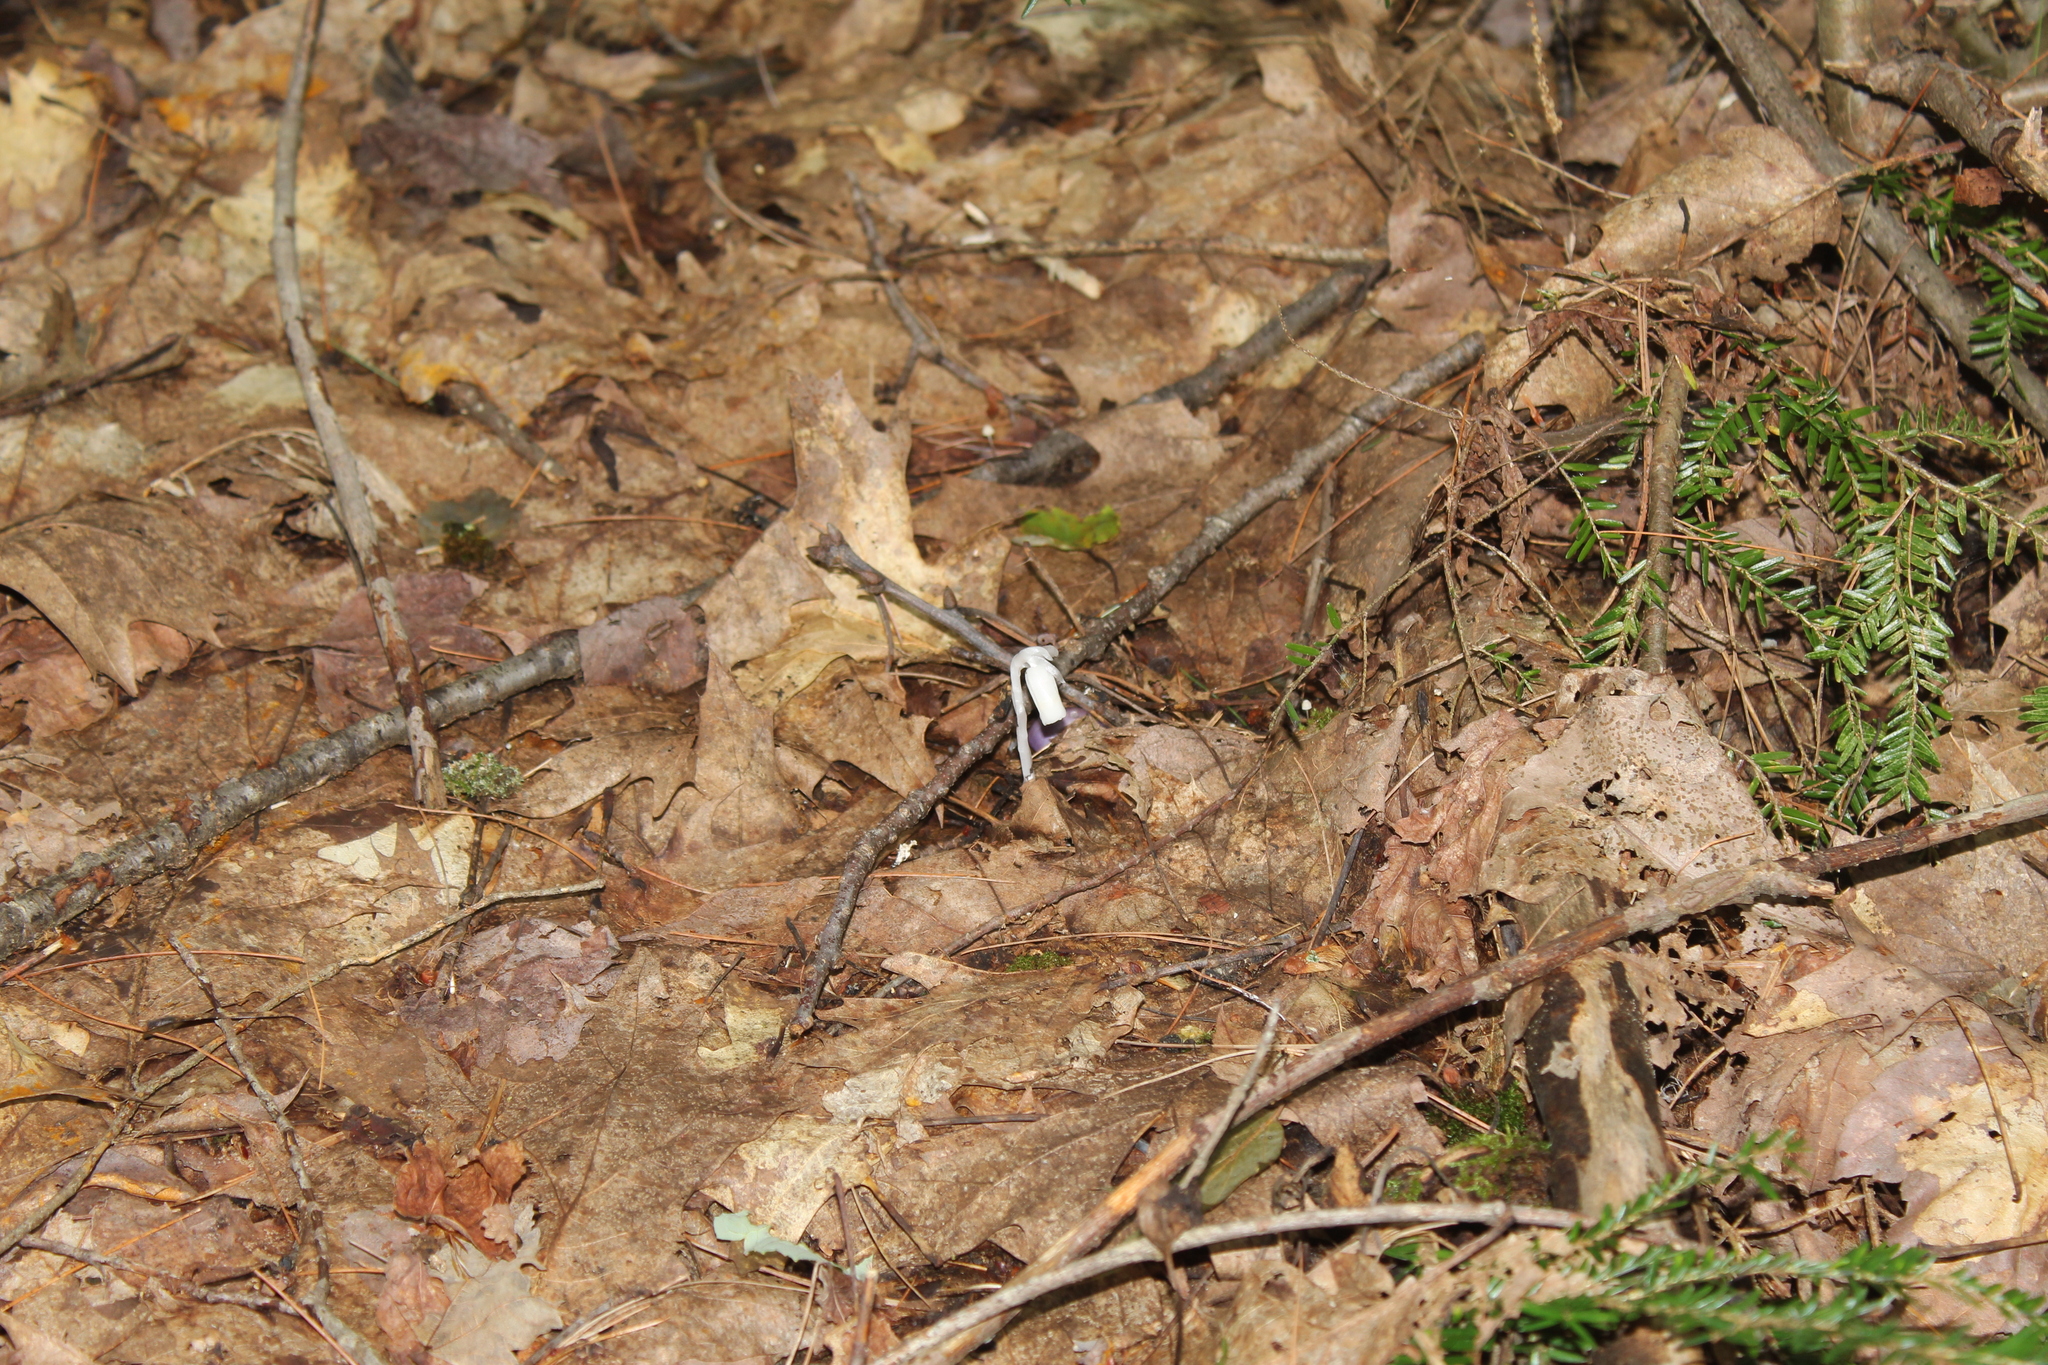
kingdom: Plantae
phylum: Tracheophyta
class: Magnoliopsida
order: Ericales
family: Ericaceae
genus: Monotropa
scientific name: Monotropa uniflora
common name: Convulsion root
